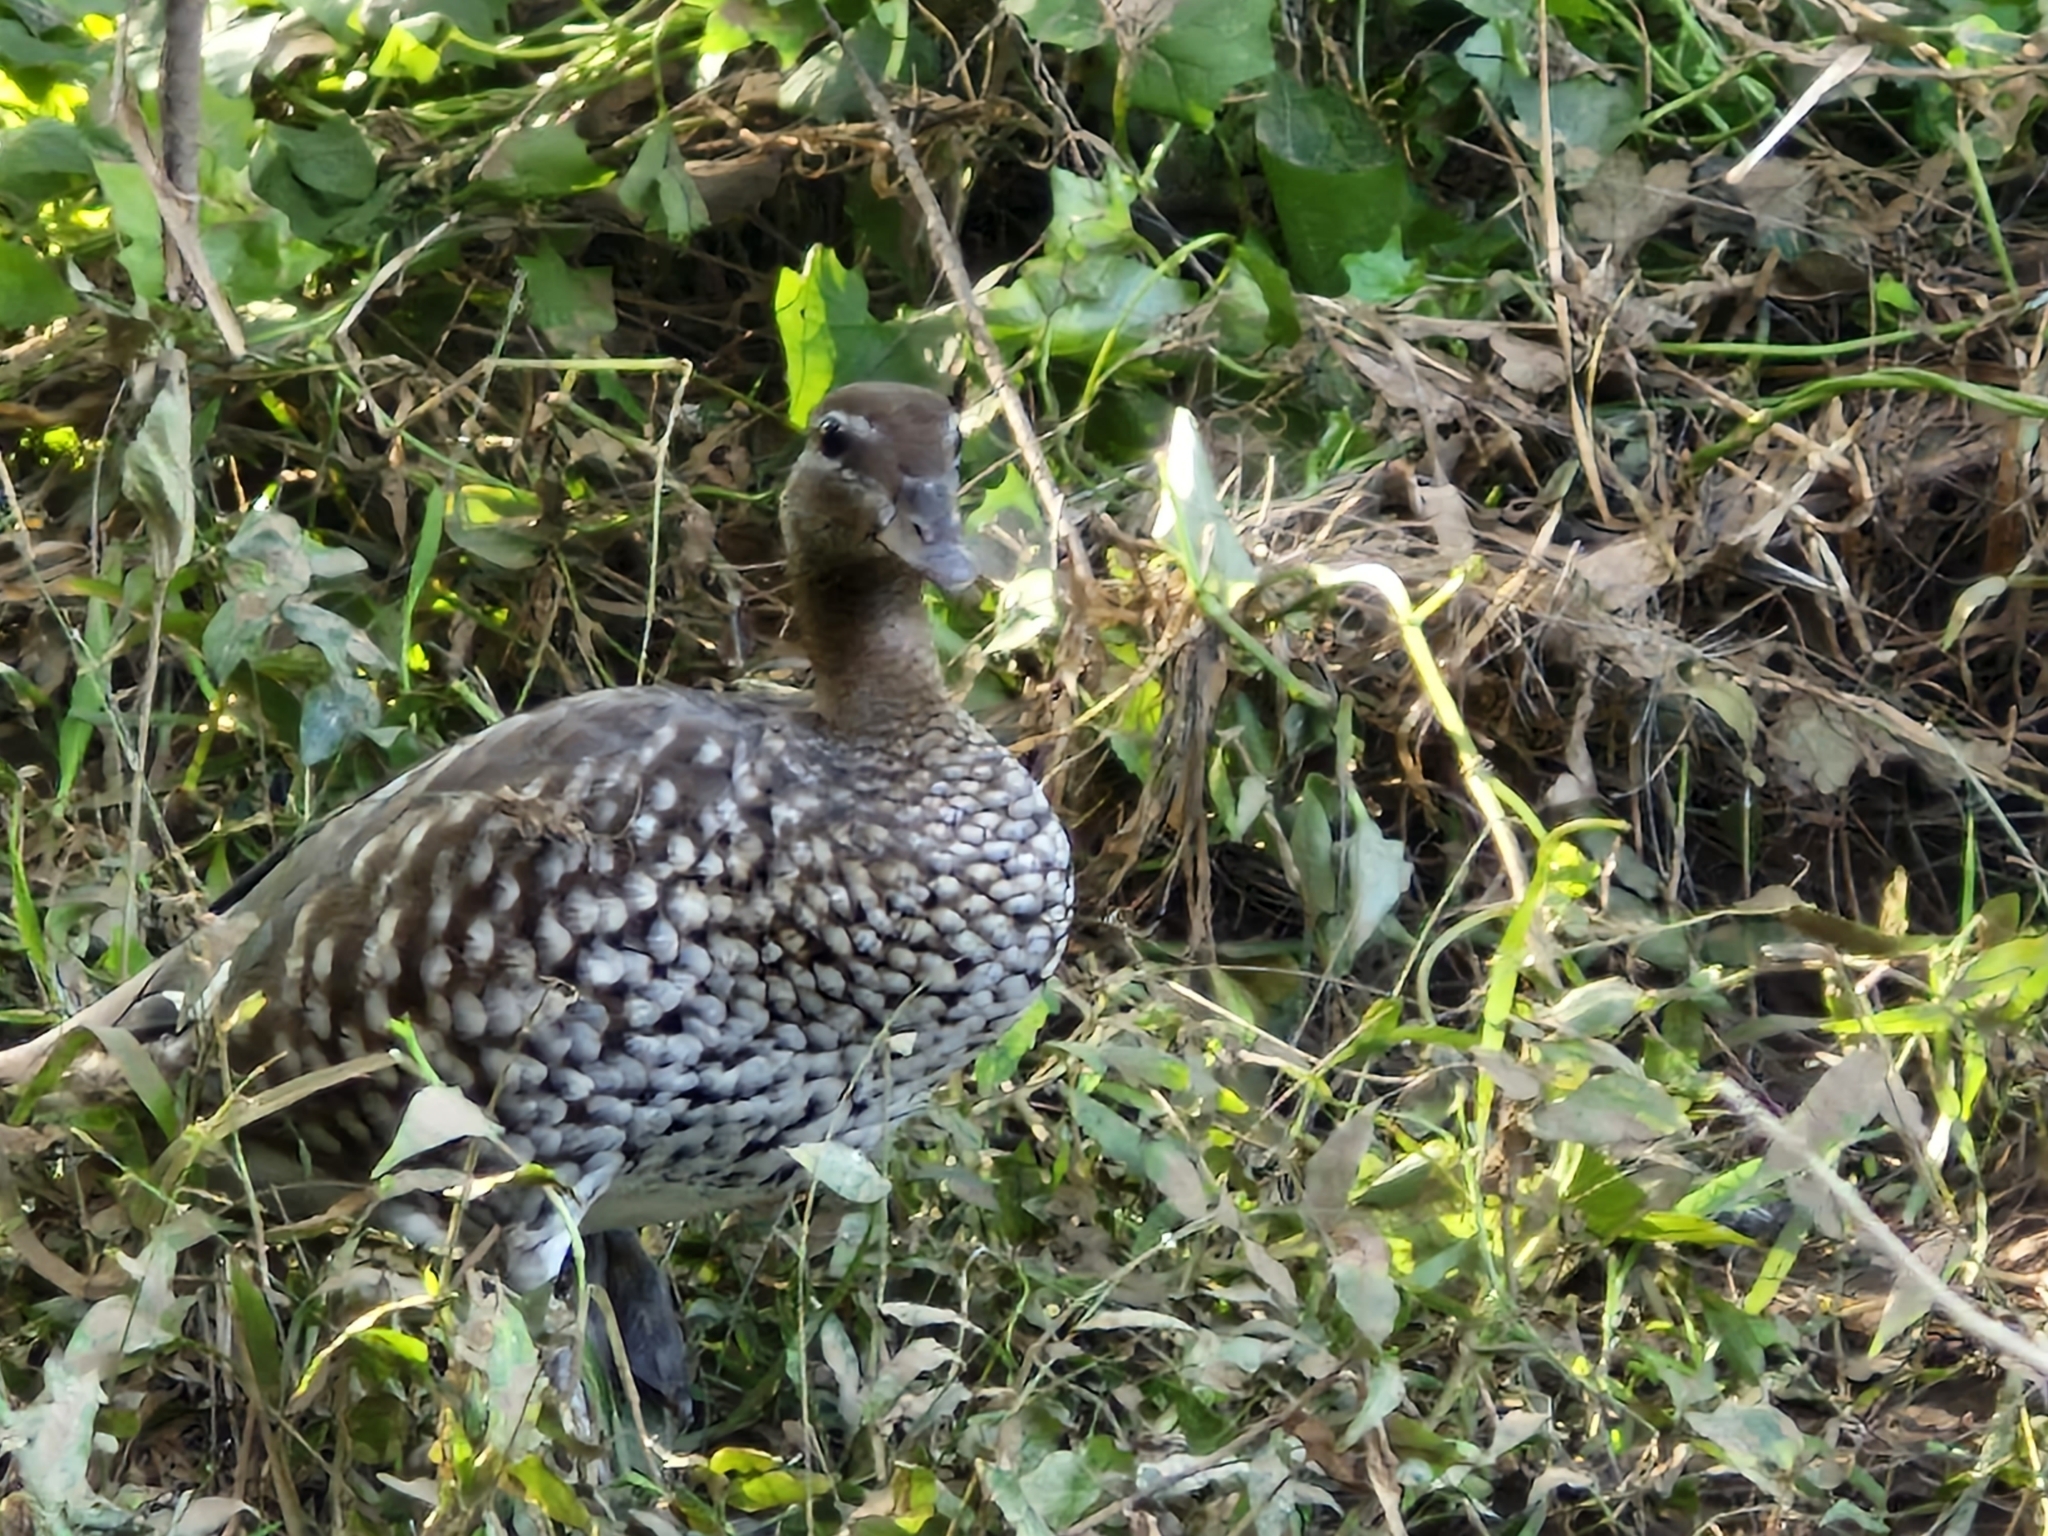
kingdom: Animalia
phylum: Chordata
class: Aves
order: Anseriformes
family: Anatidae
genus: Chenonetta
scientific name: Chenonetta jubata
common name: Maned duck
